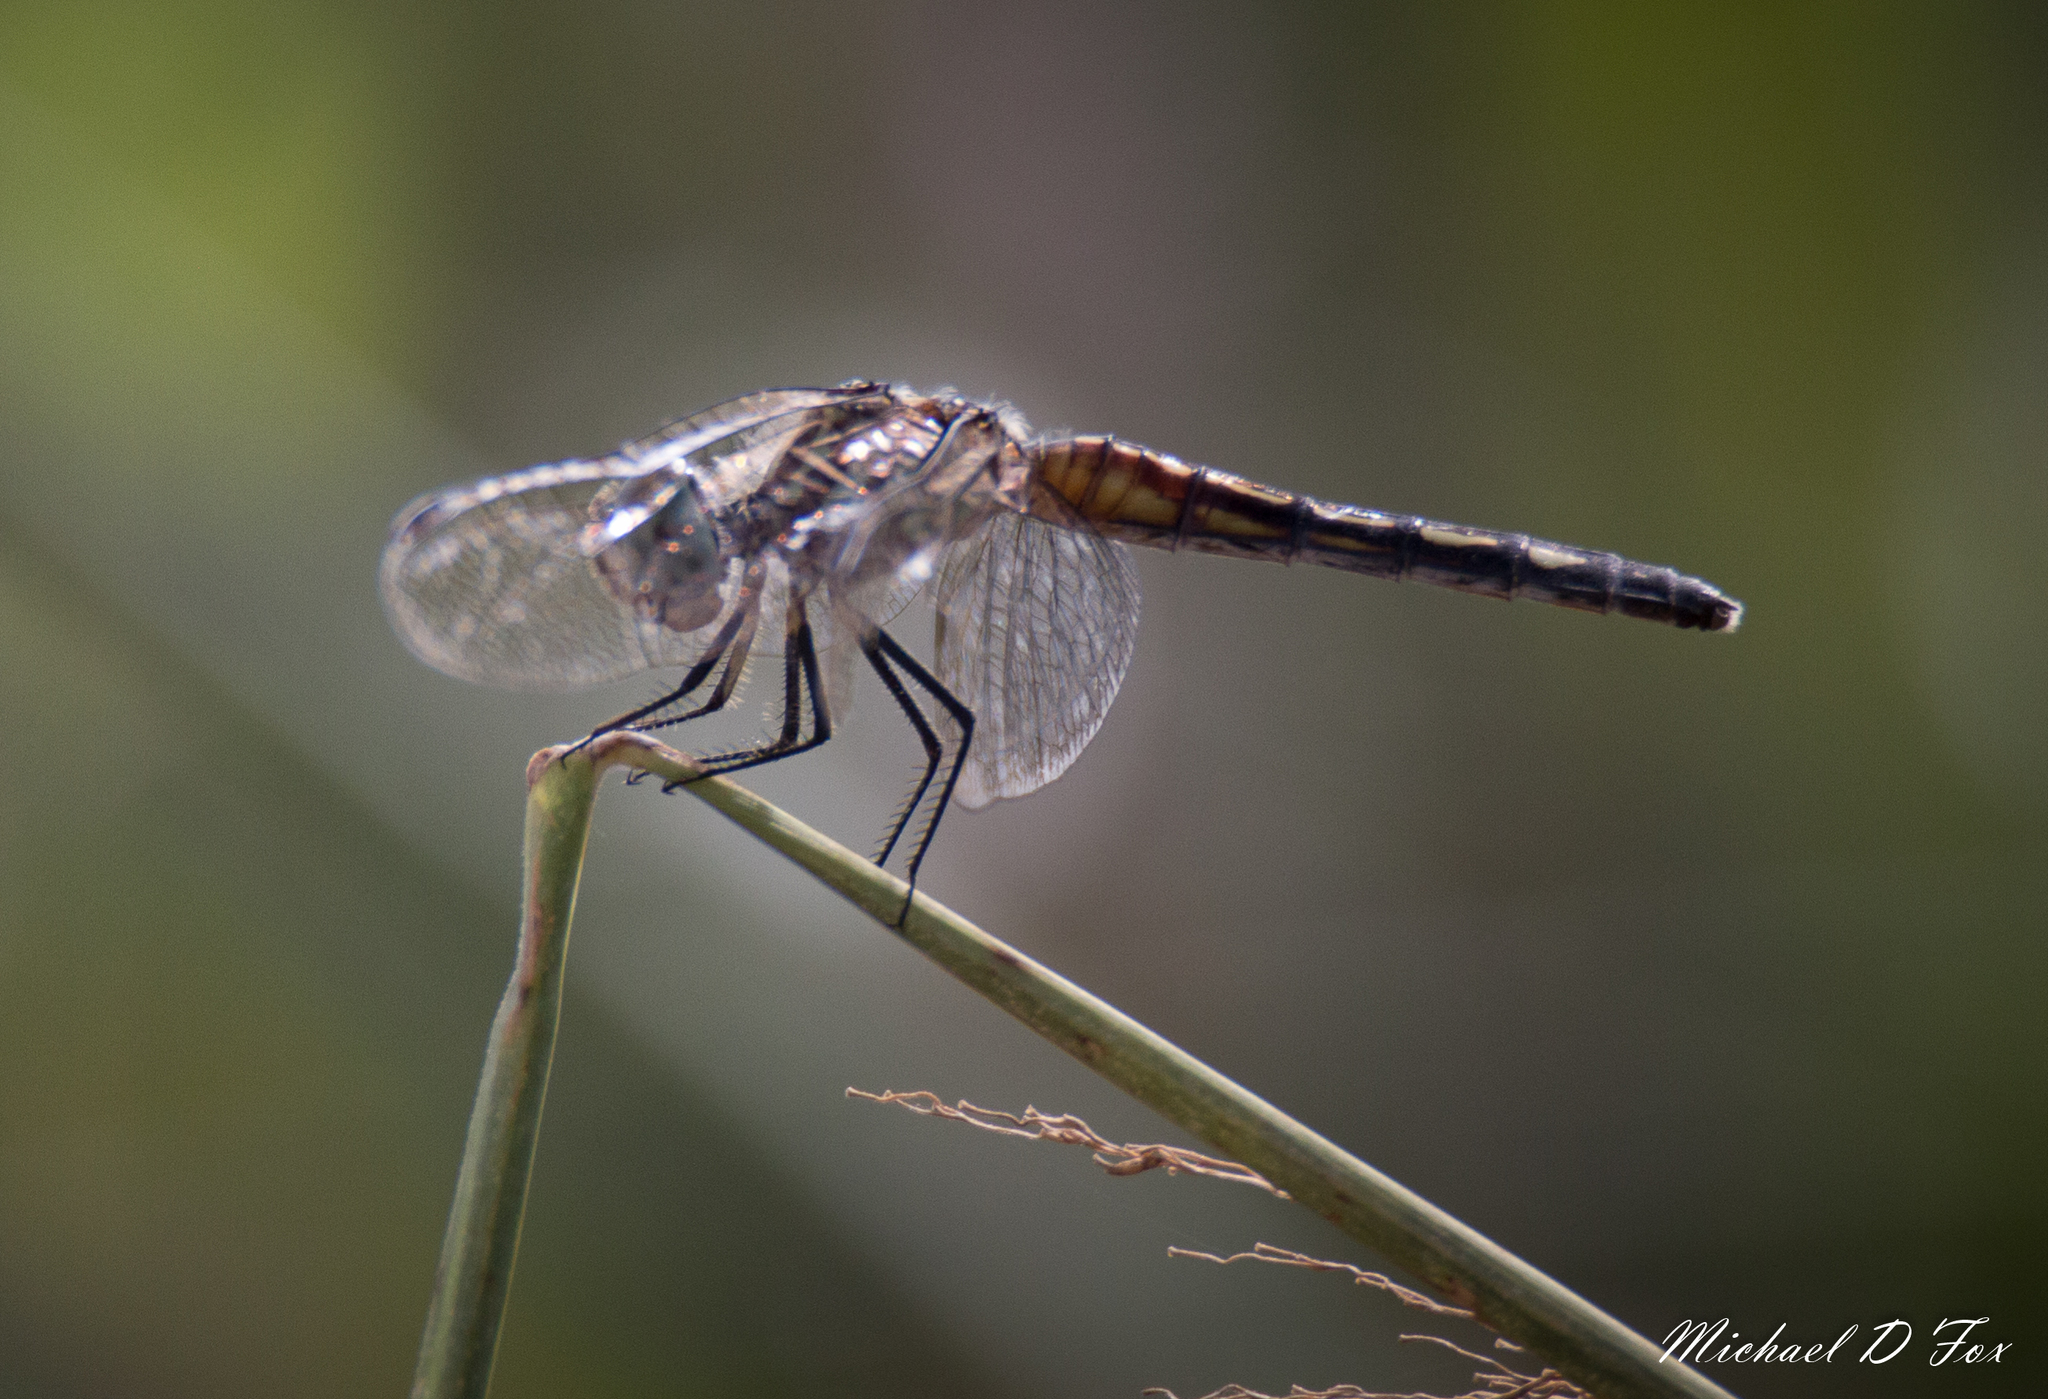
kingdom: Animalia
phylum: Arthropoda
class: Insecta
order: Odonata
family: Libellulidae
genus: Pachydiplax
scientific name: Pachydiplax longipennis
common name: Blue dasher
